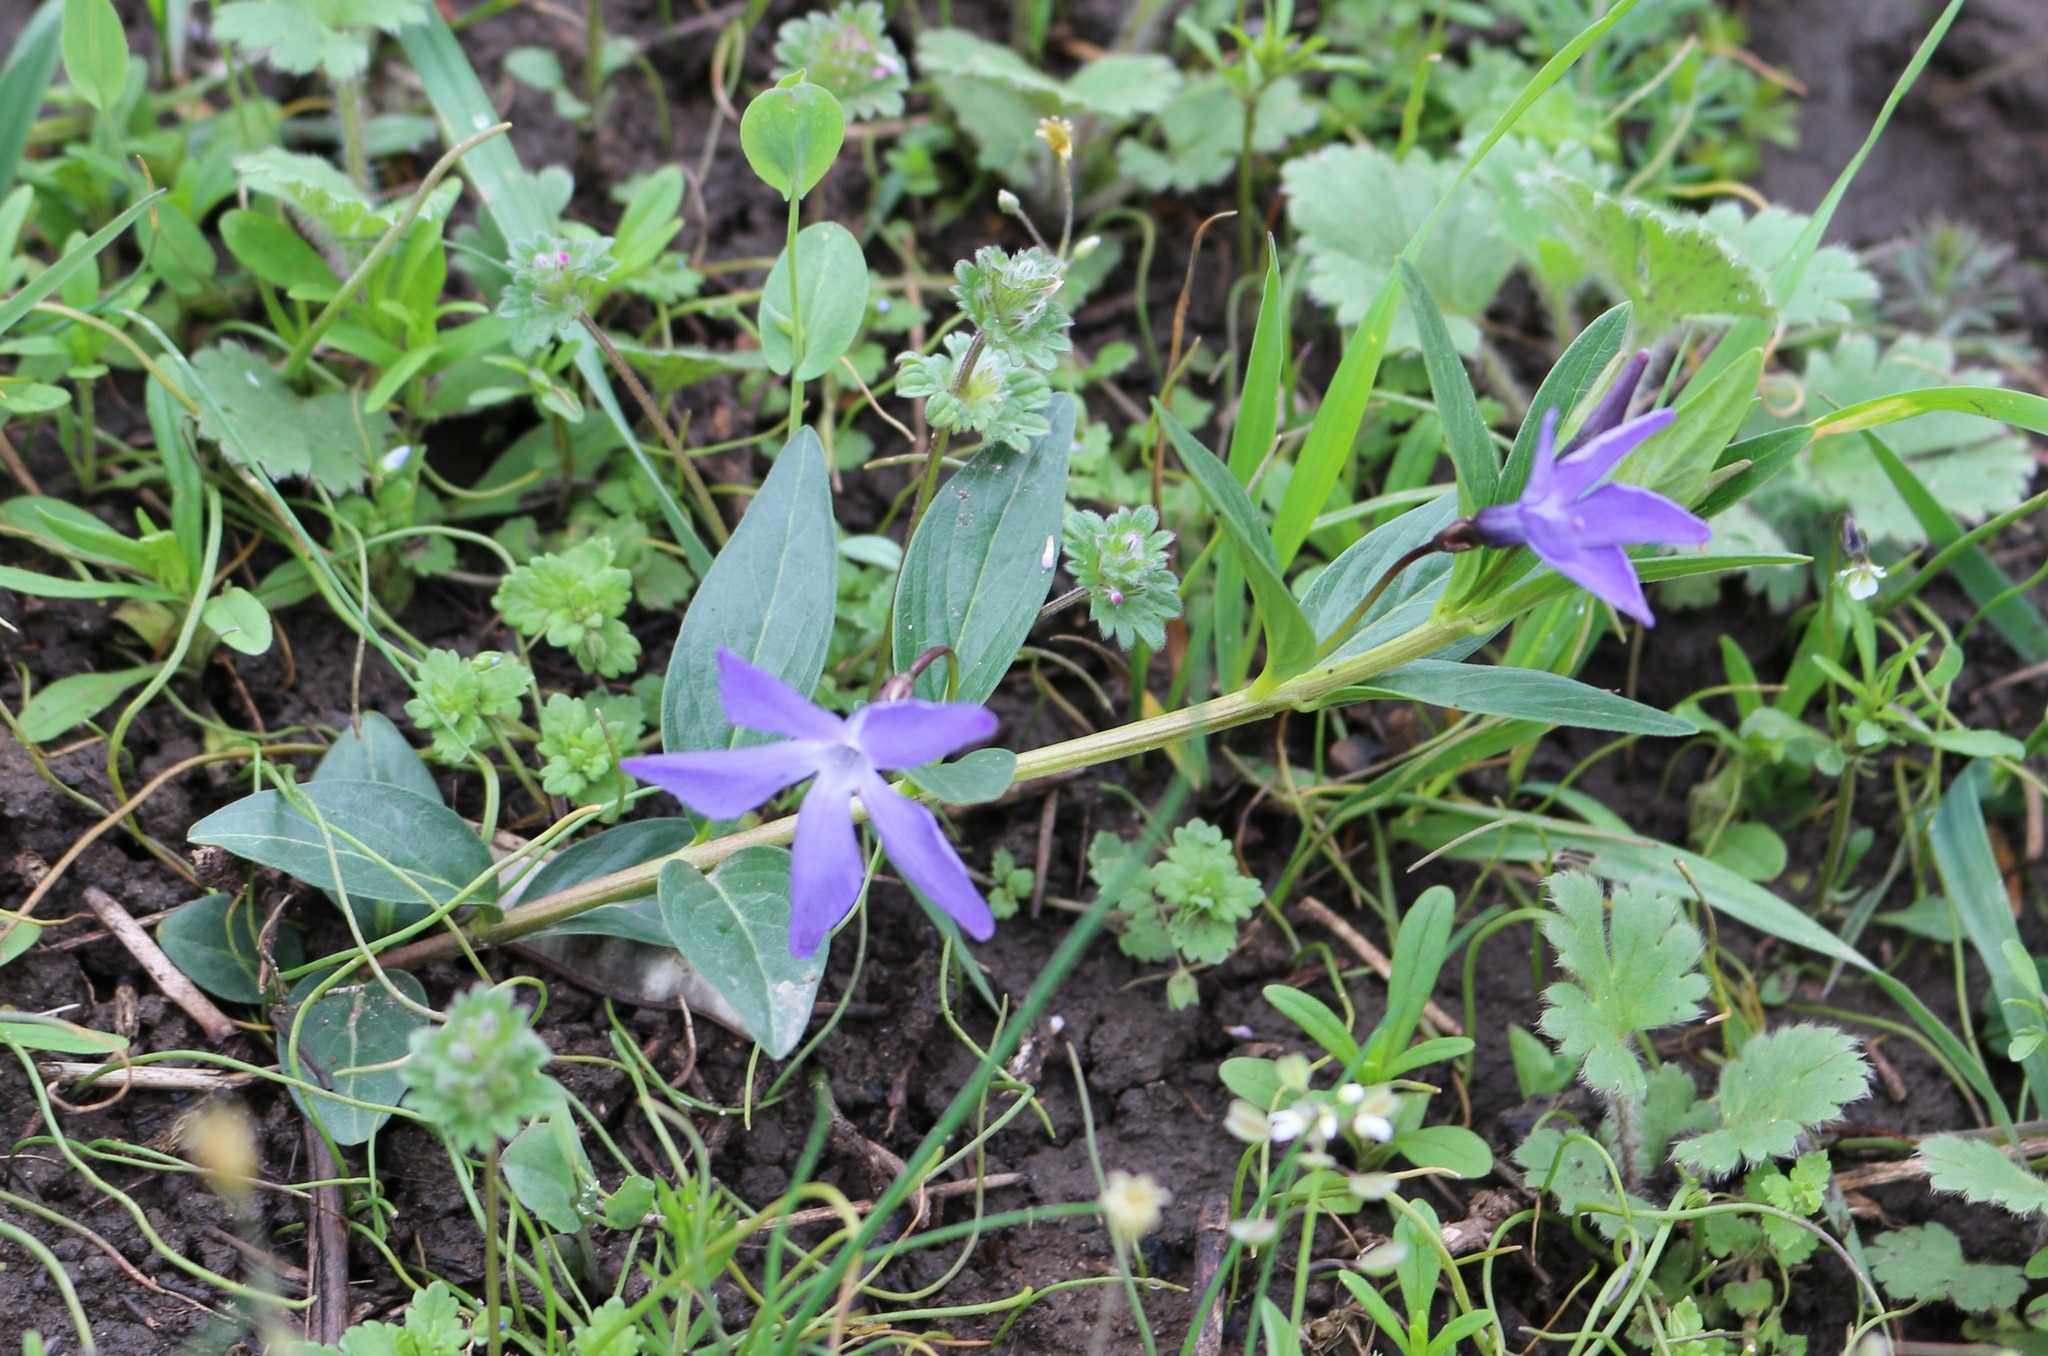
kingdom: Plantae
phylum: Tracheophyta
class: Magnoliopsida
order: Gentianales
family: Apocynaceae
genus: Vinca
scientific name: Vinca herbacea
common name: Herbaceous periwinkle
